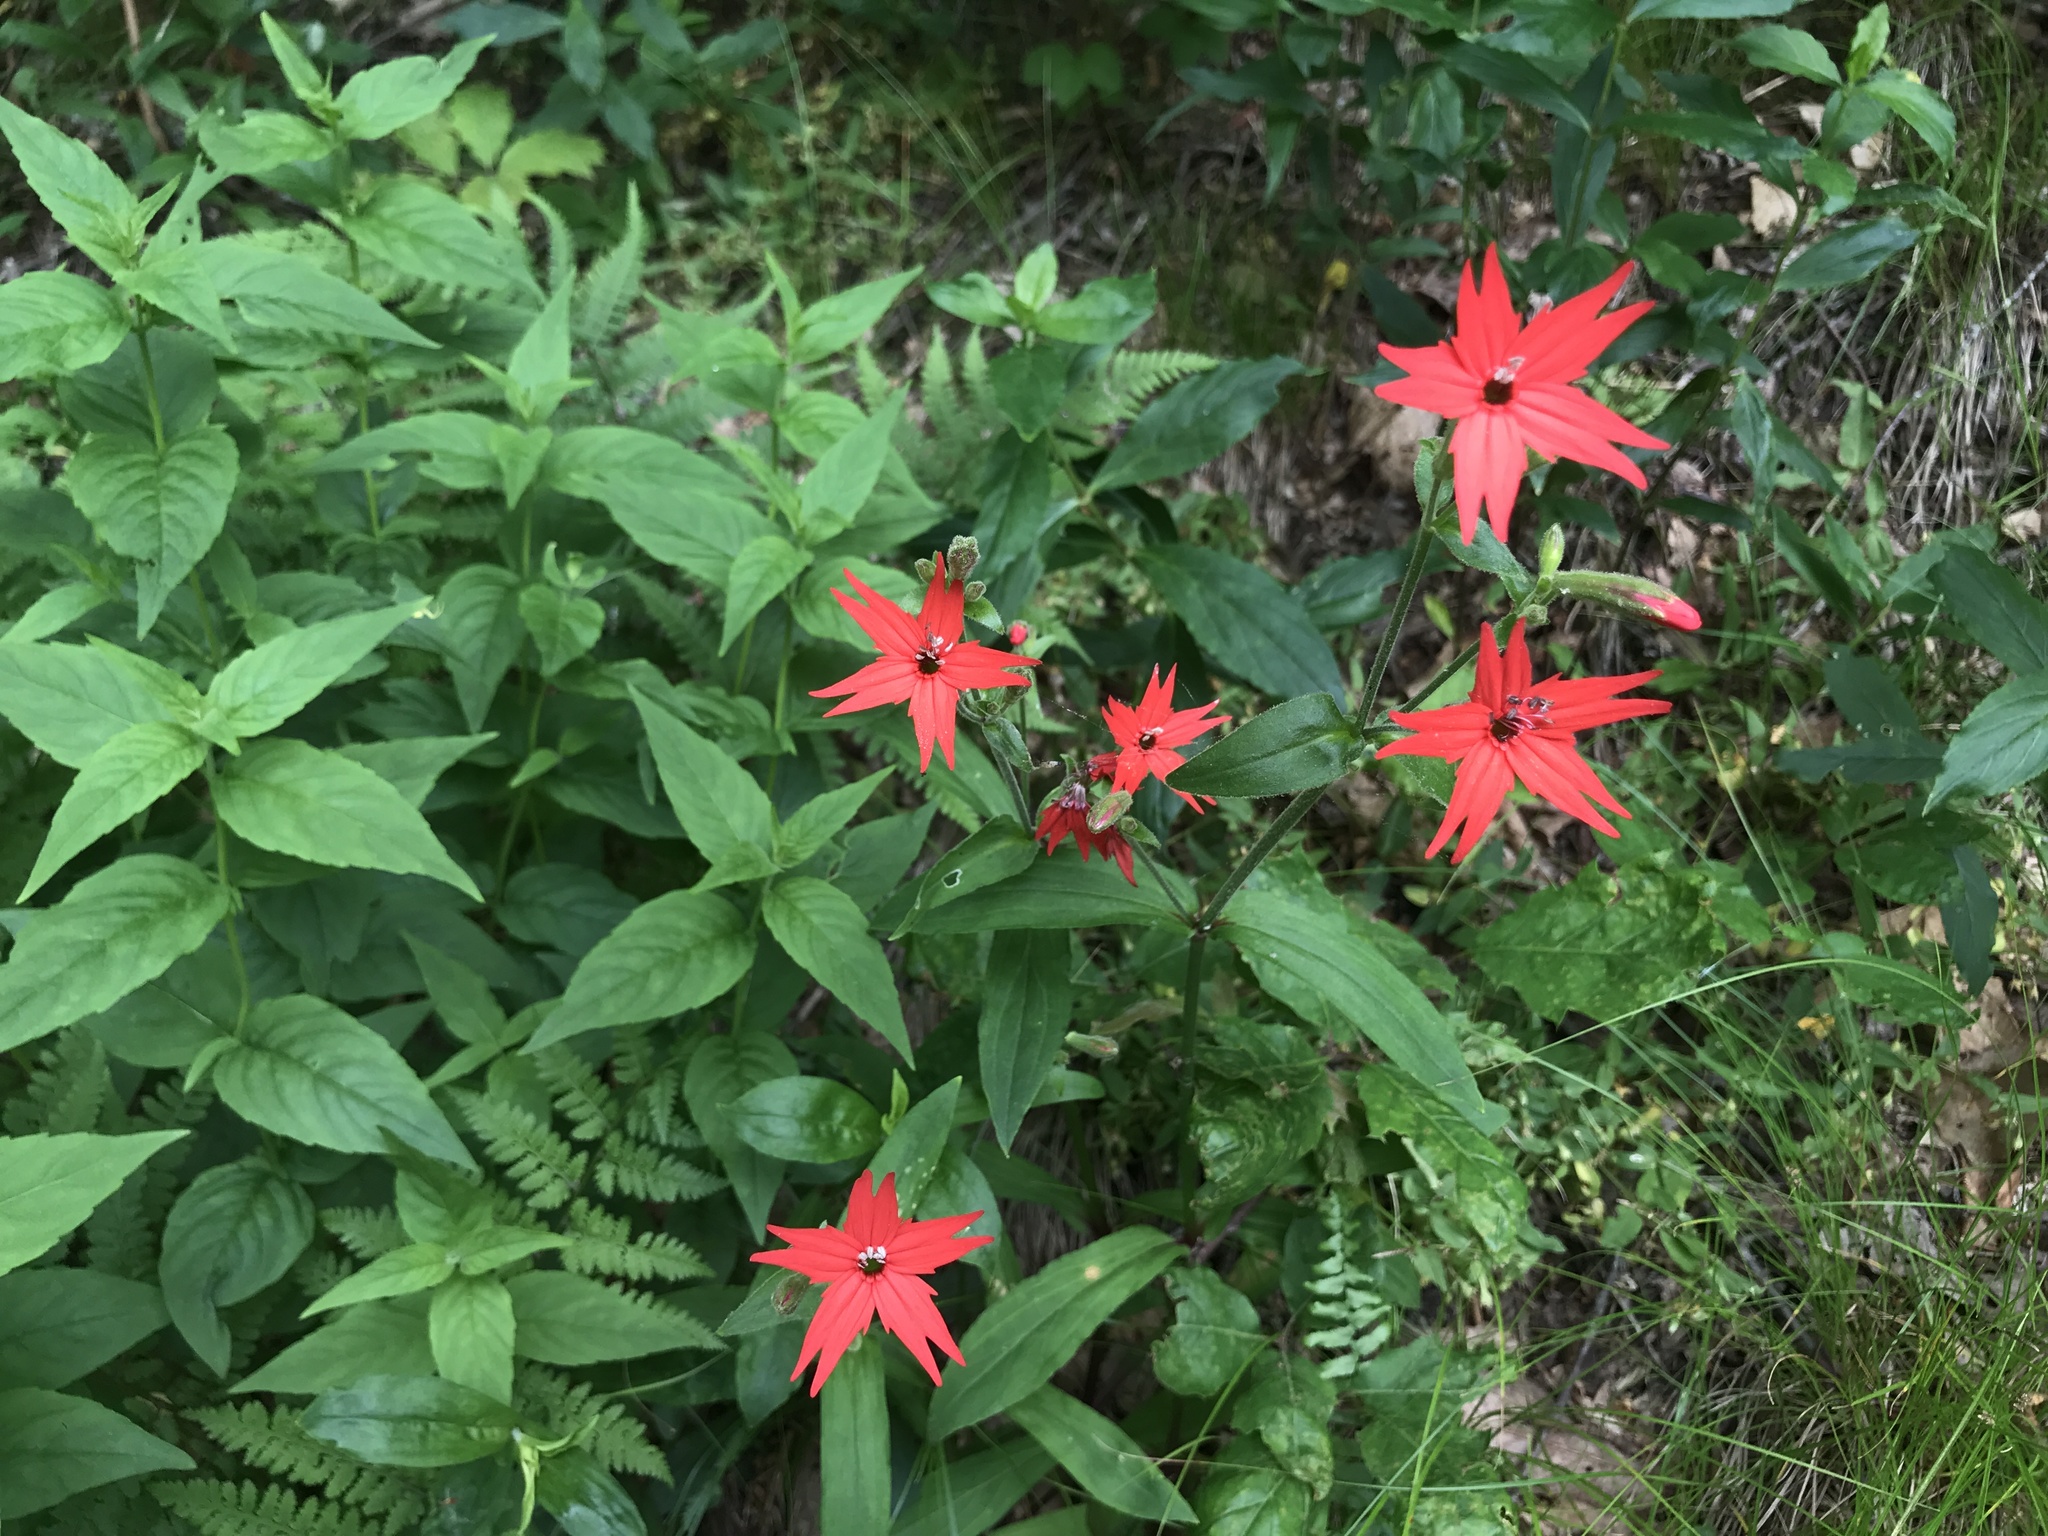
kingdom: Plantae
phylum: Tracheophyta
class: Magnoliopsida
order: Caryophyllales
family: Caryophyllaceae
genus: Silene
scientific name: Silene virginica
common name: Fire-pink
